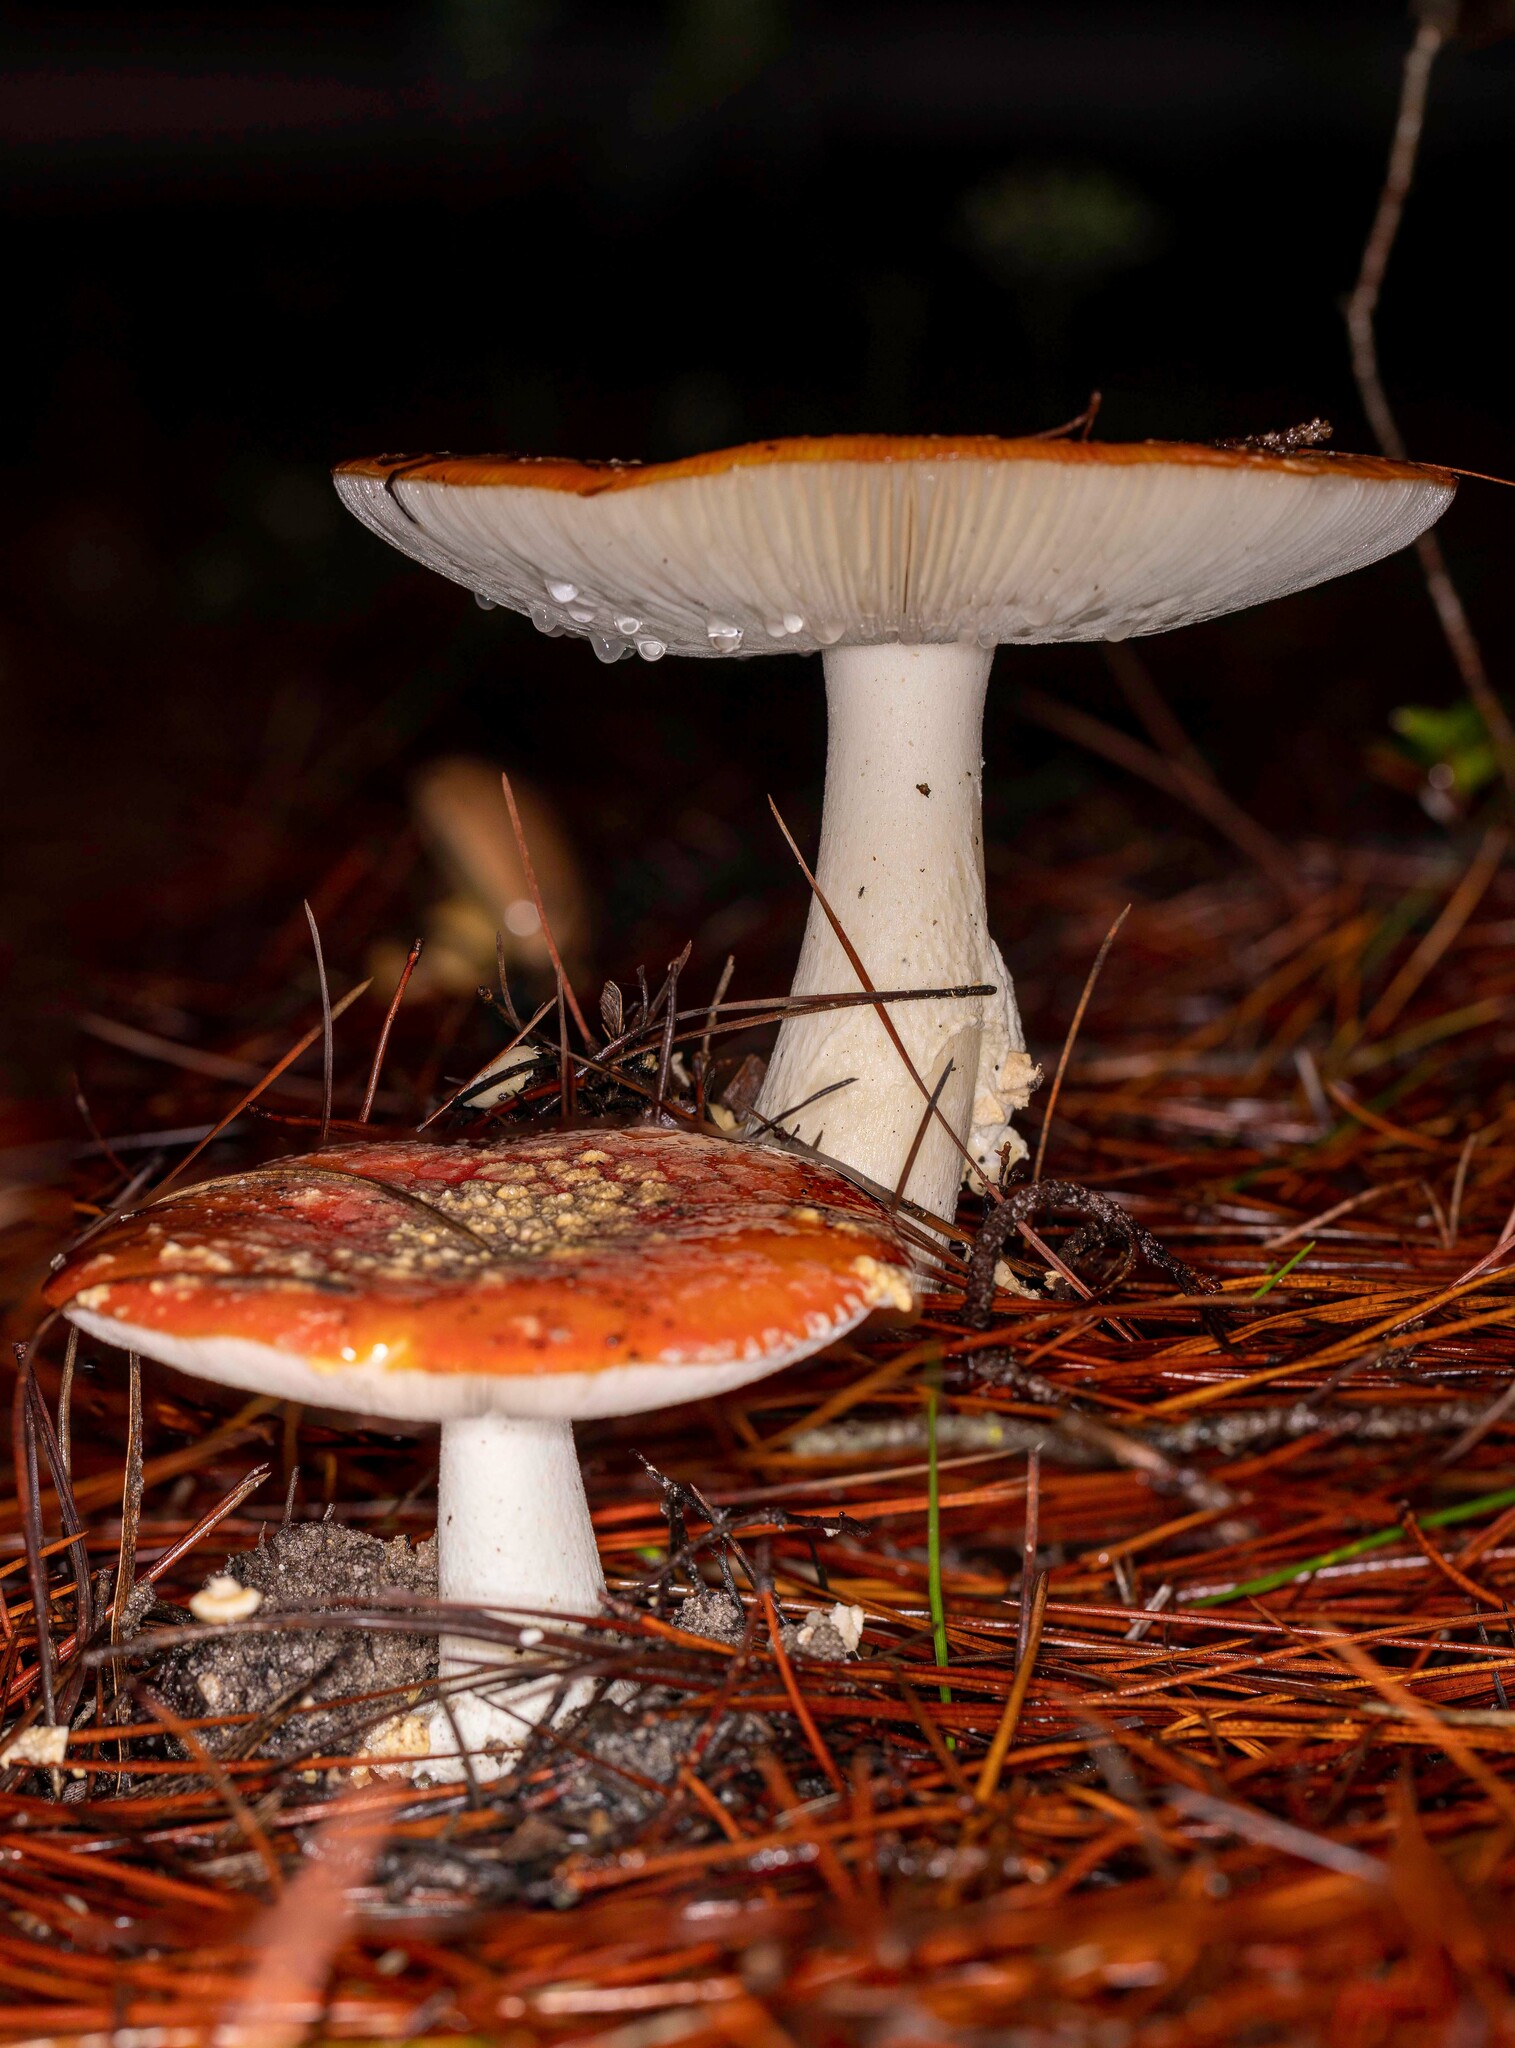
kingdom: Fungi
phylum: Basidiomycota
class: Agaricomycetes
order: Agaricales
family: Amanitaceae
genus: Amanita
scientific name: Amanita muscaria
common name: Fly agaric
